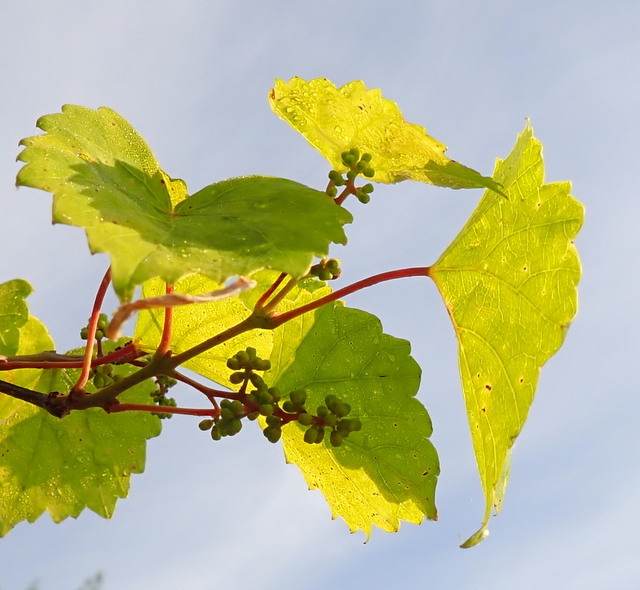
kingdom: Plantae
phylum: Tracheophyta
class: Magnoliopsida
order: Vitales
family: Vitaceae
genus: Vitis
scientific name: Vitis rotundifolia
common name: Muscadine grape
